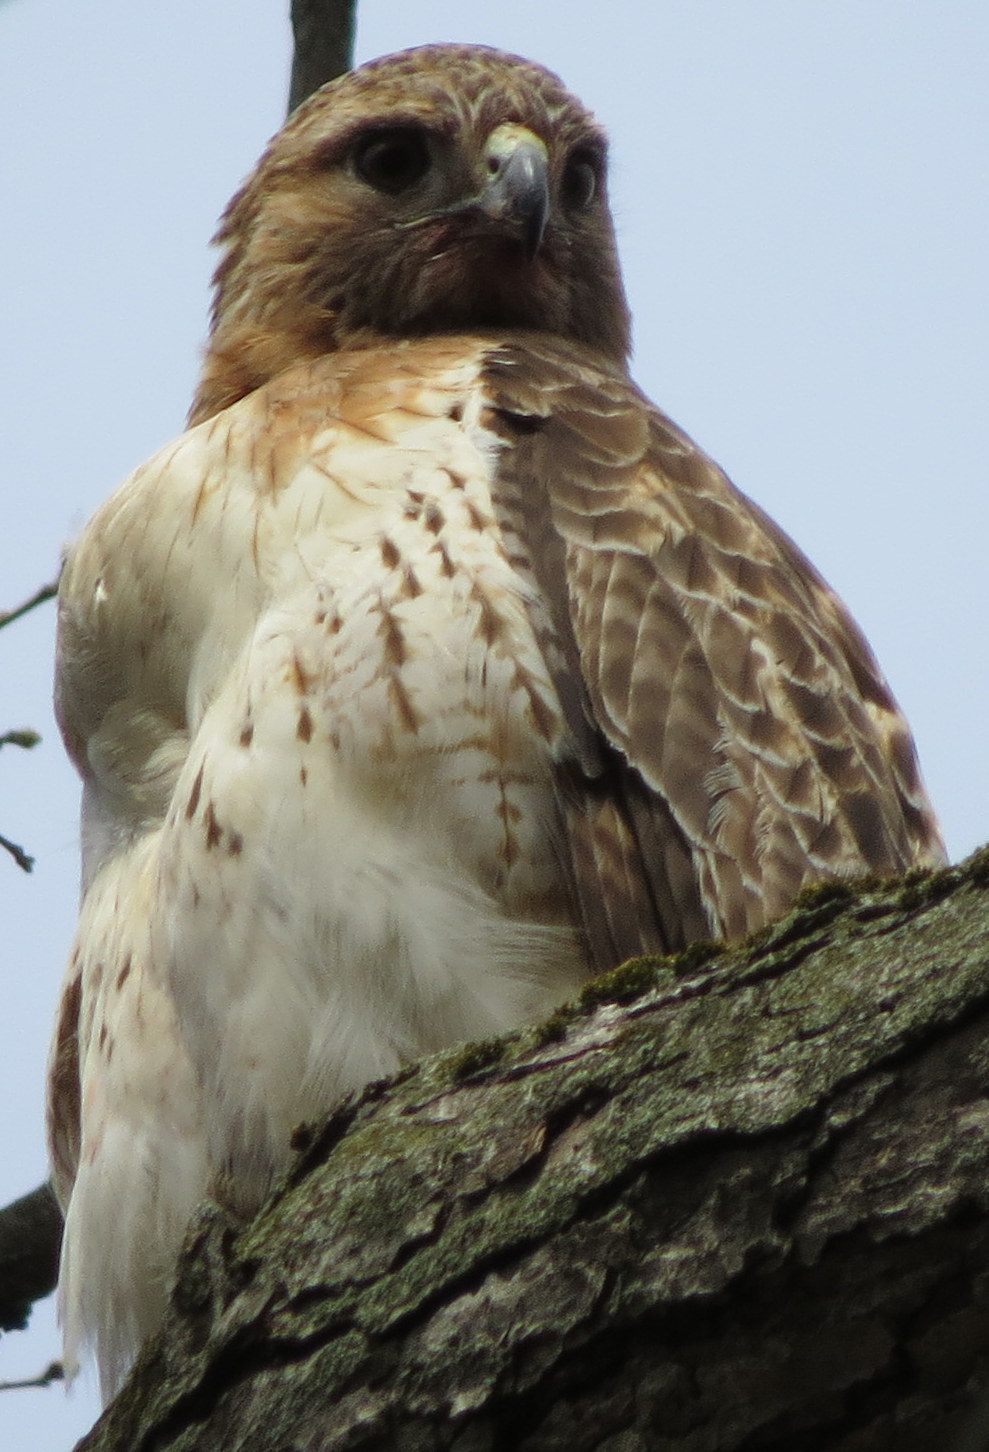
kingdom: Animalia
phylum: Chordata
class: Aves
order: Accipitriformes
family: Accipitridae
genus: Buteo
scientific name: Buteo jamaicensis
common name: Red-tailed hawk
